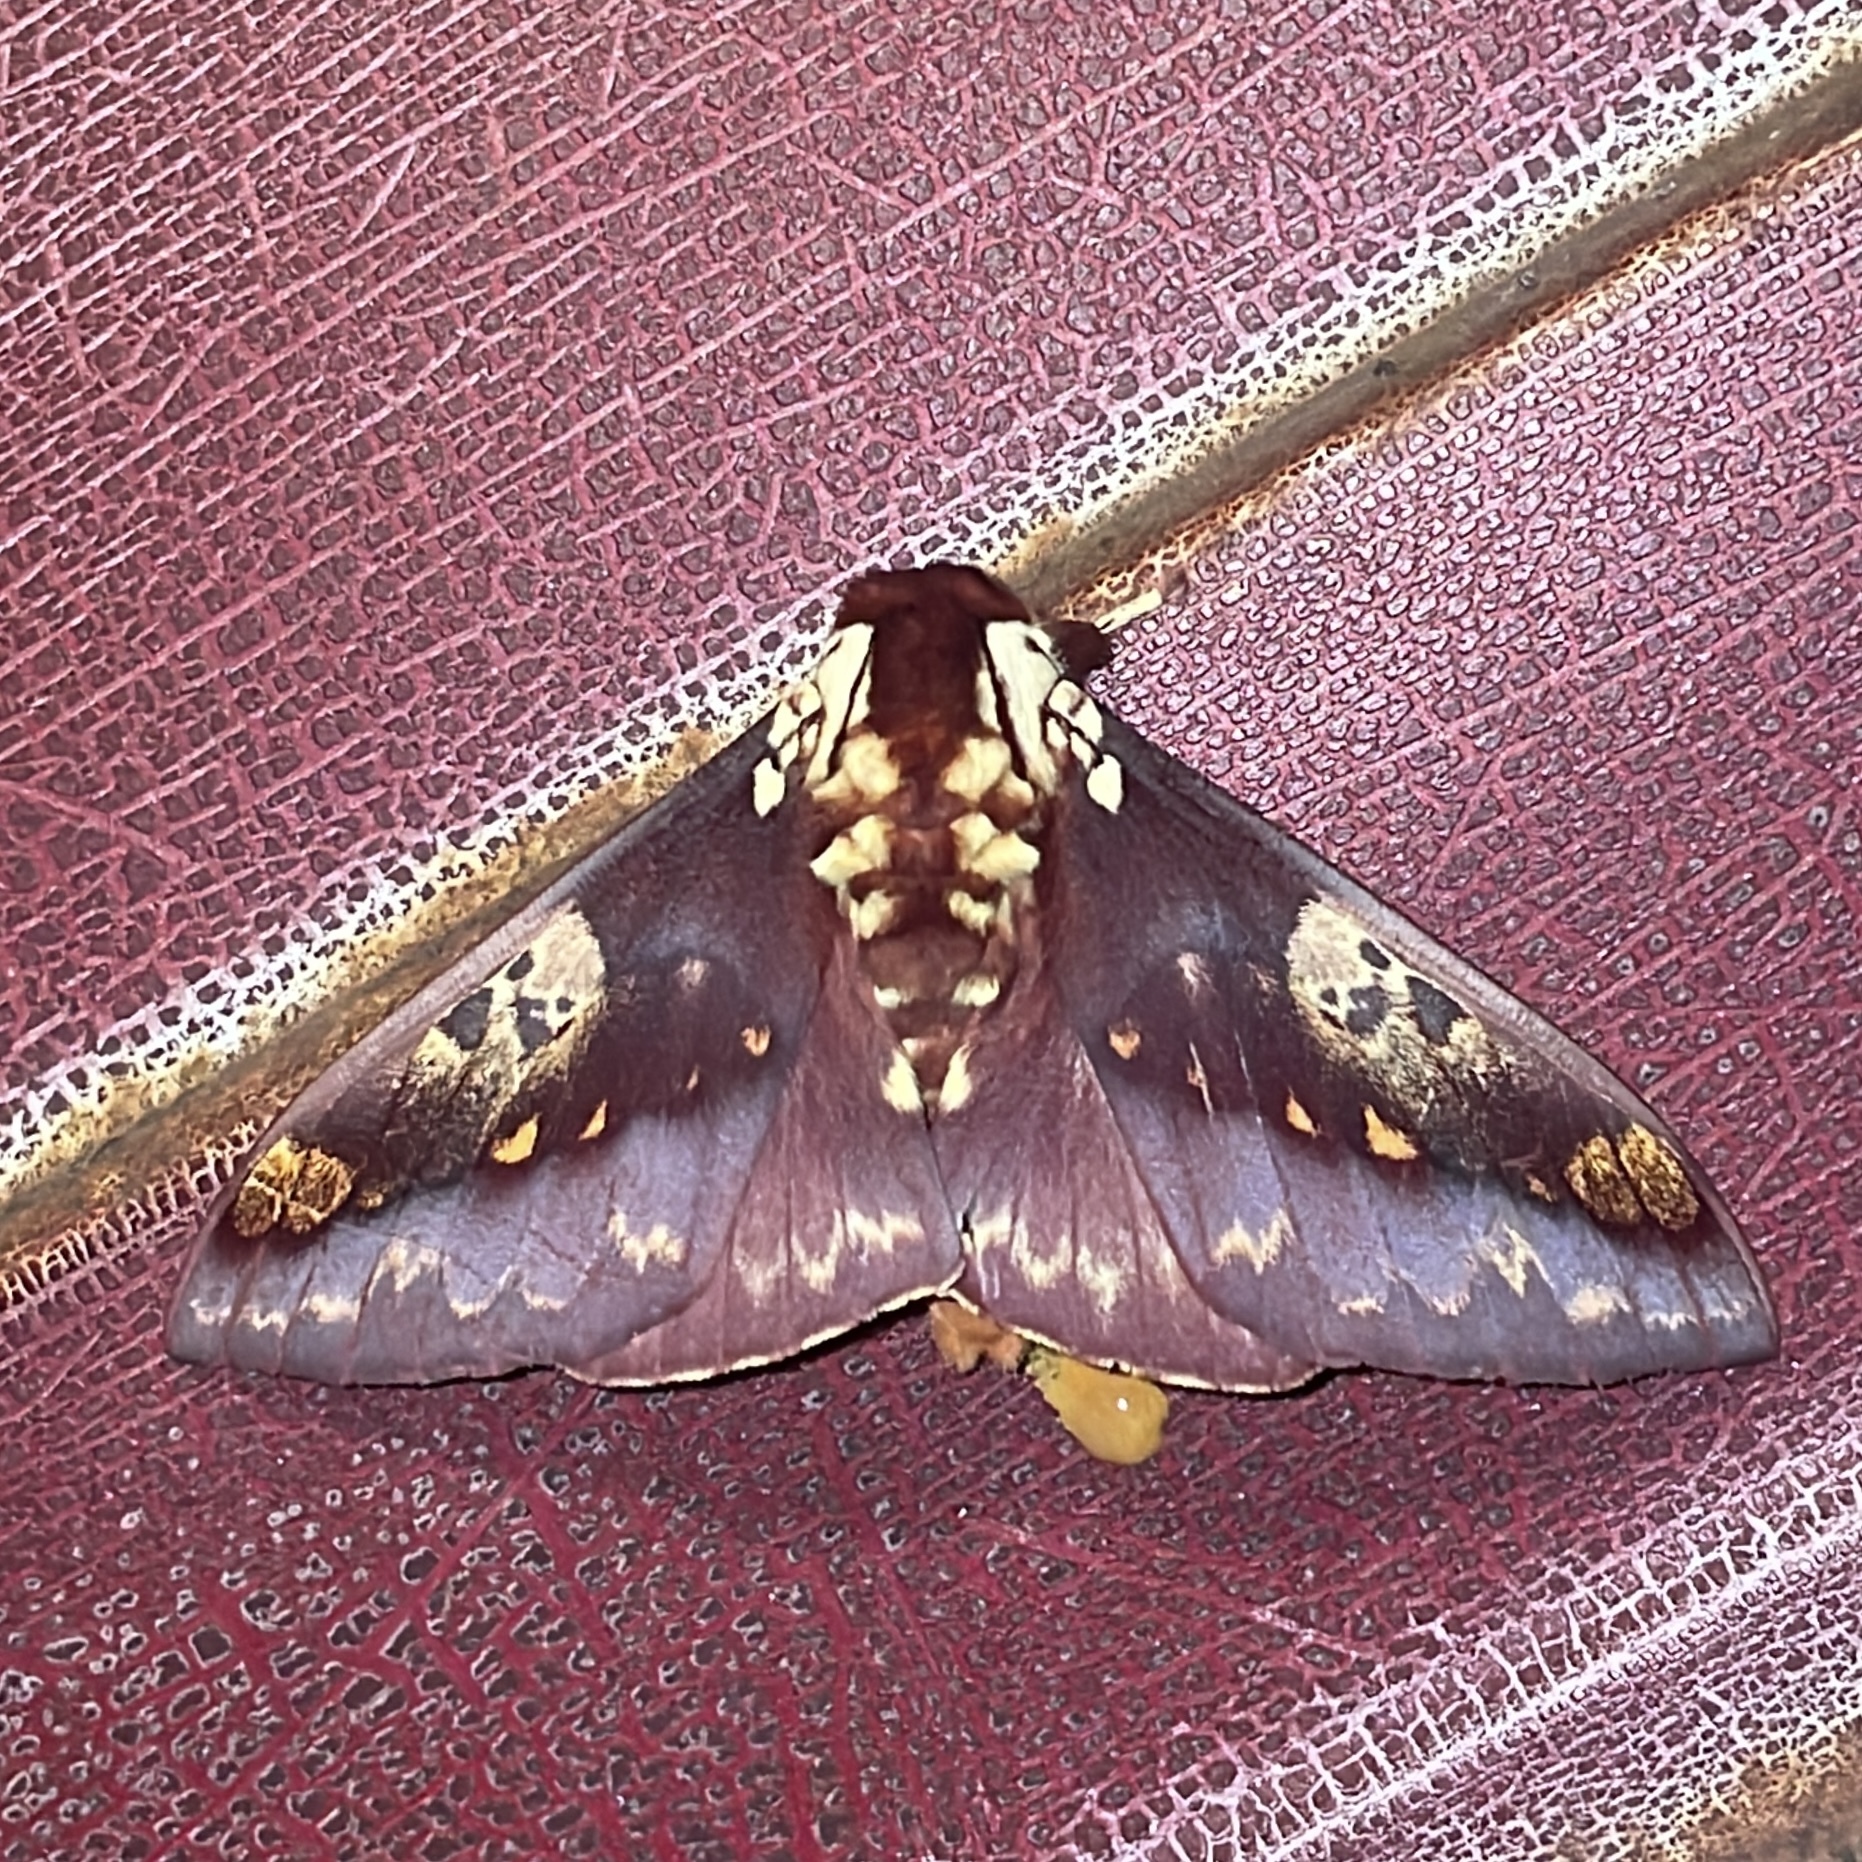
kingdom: Animalia
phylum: Arthropoda
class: Insecta
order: Lepidoptera
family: Saturniidae
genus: Citheronia
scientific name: Citheronia phoronea
